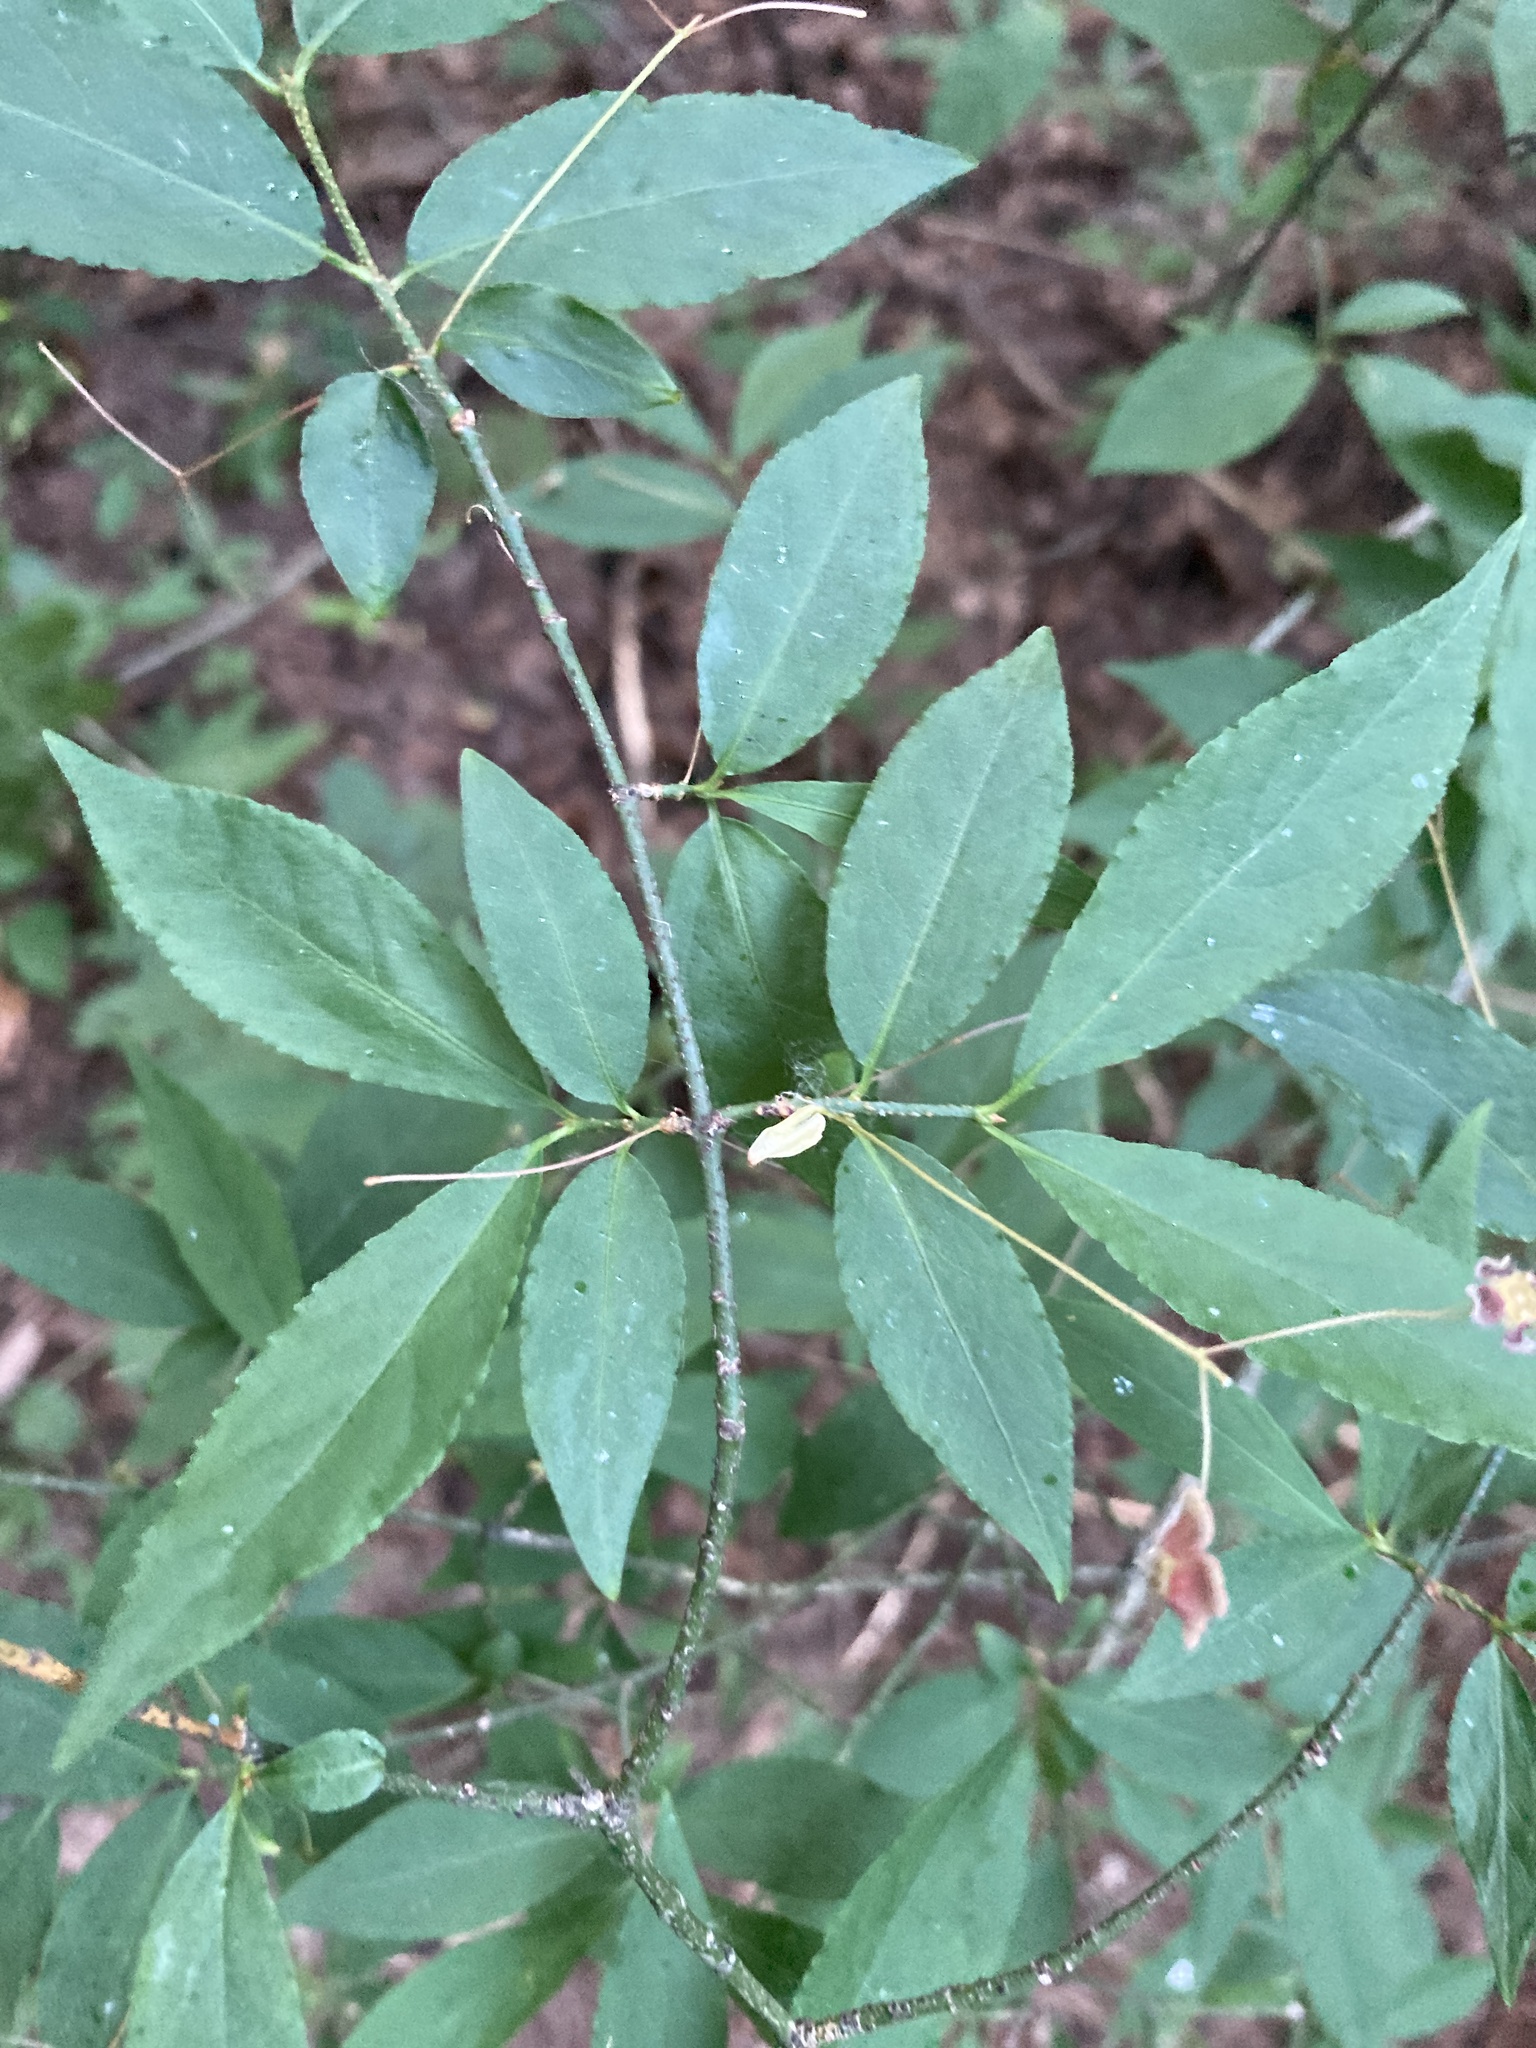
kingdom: Plantae
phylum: Tracheophyta
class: Magnoliopsida
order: Celastrales
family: Celastraceae
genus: Euonymus
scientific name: Euonymus verrucosus
